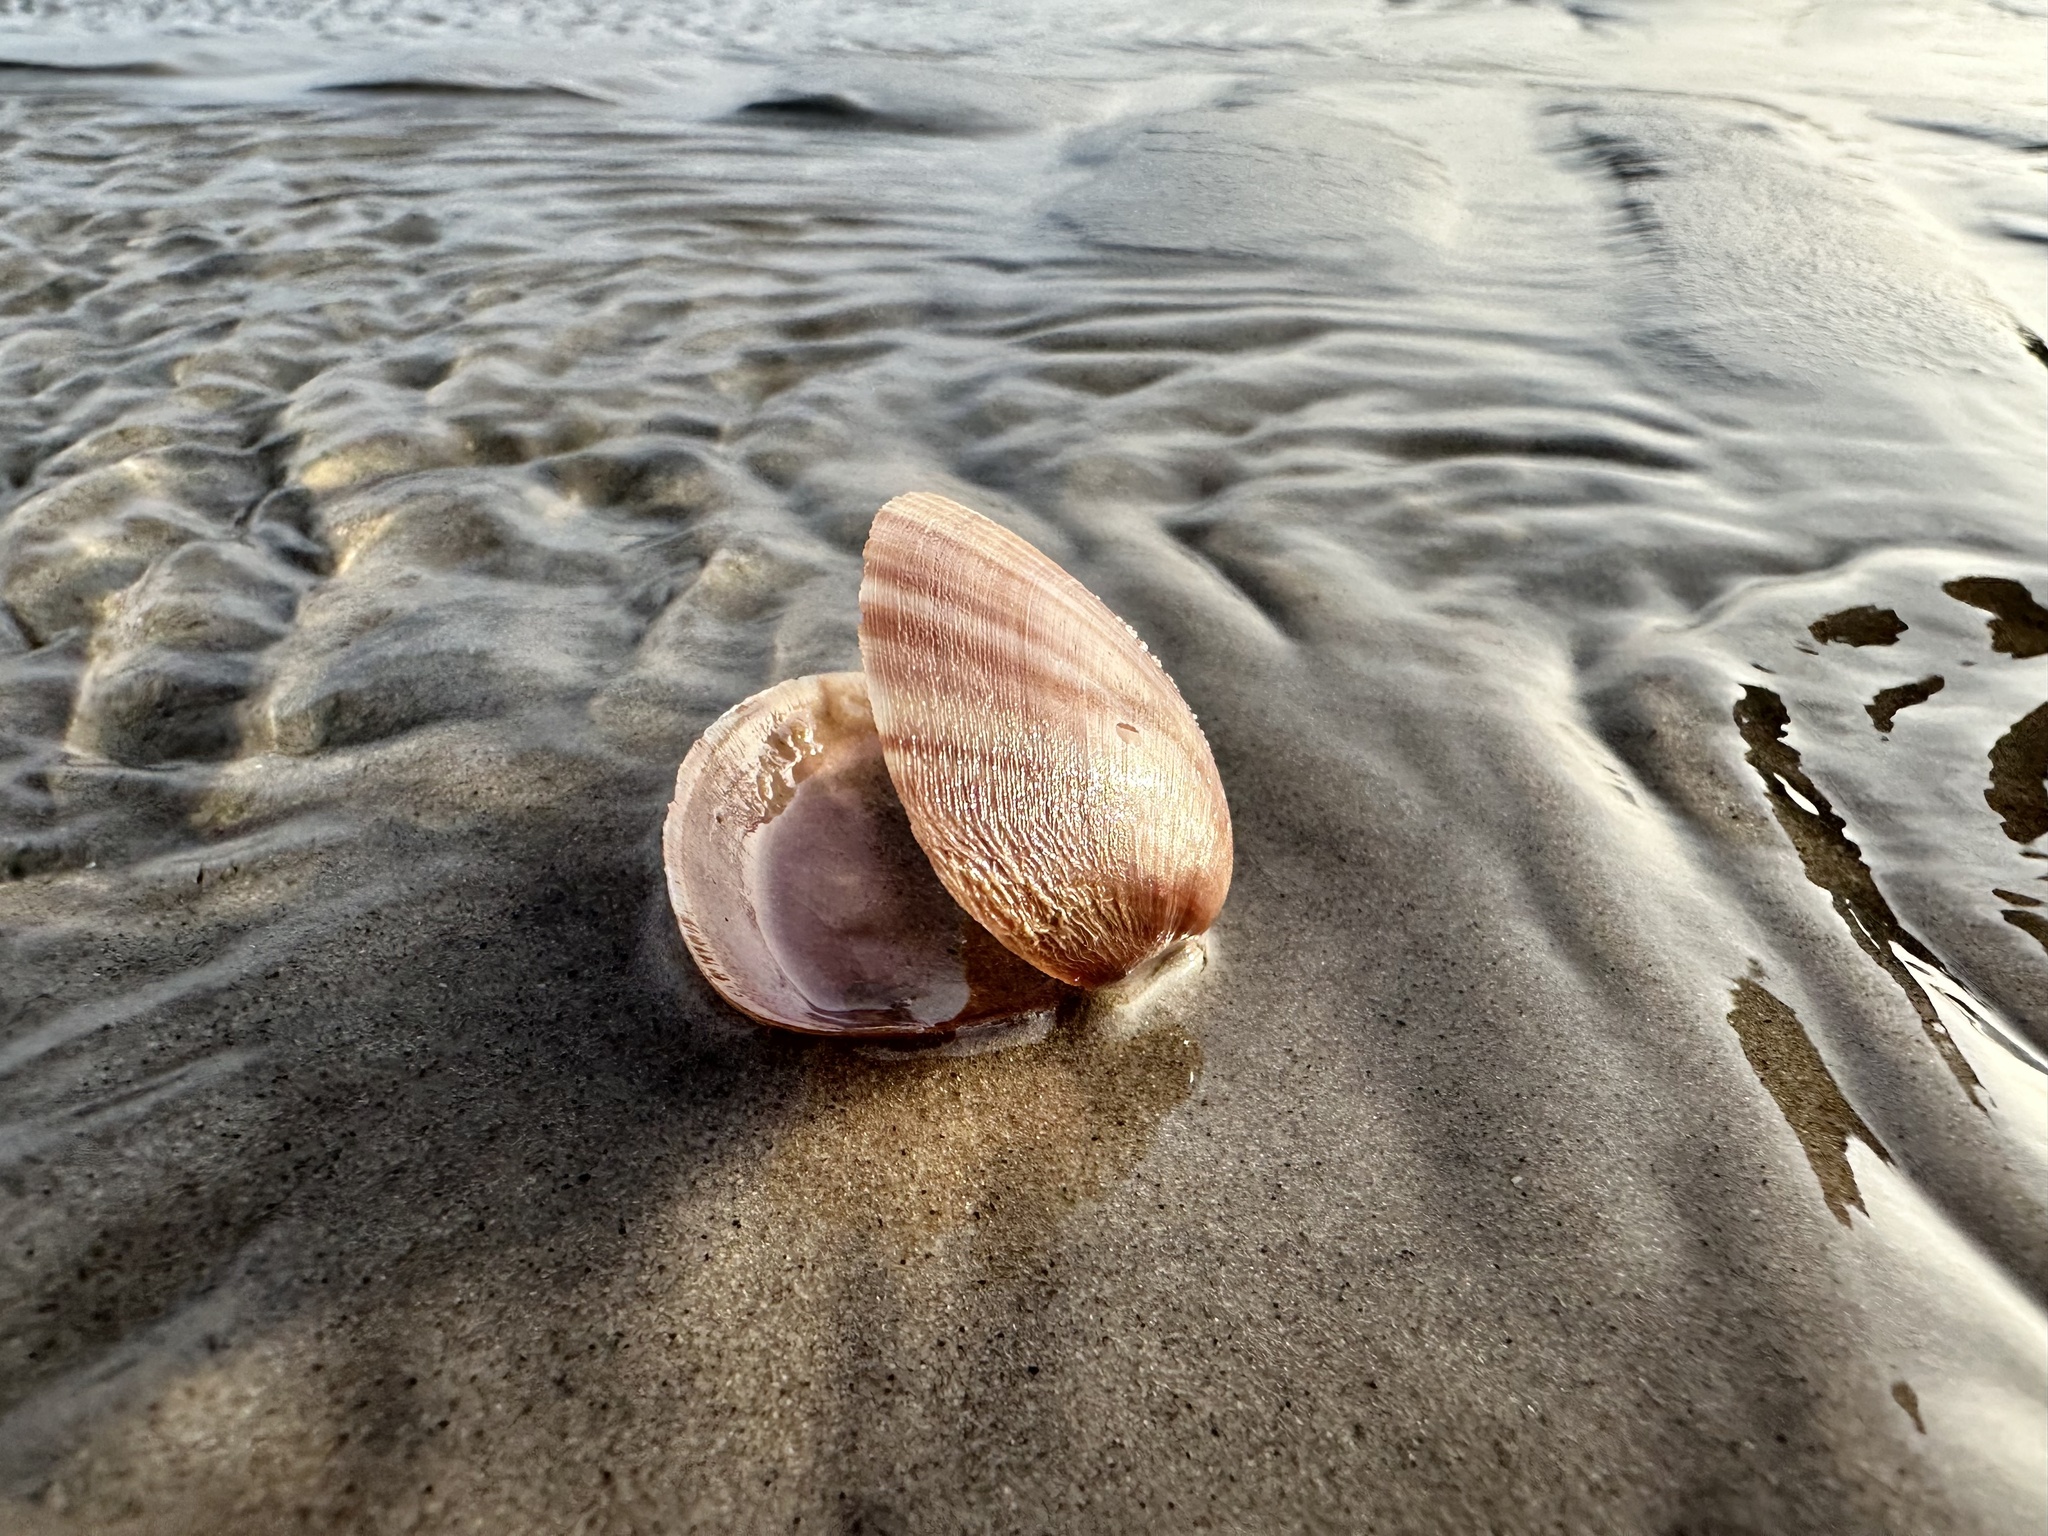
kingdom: Animalia
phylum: Mollusca
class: Bivalvia
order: Venerida
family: Mactridae
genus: Mactra
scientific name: Mactra stultorum
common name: Rayed trough shell
